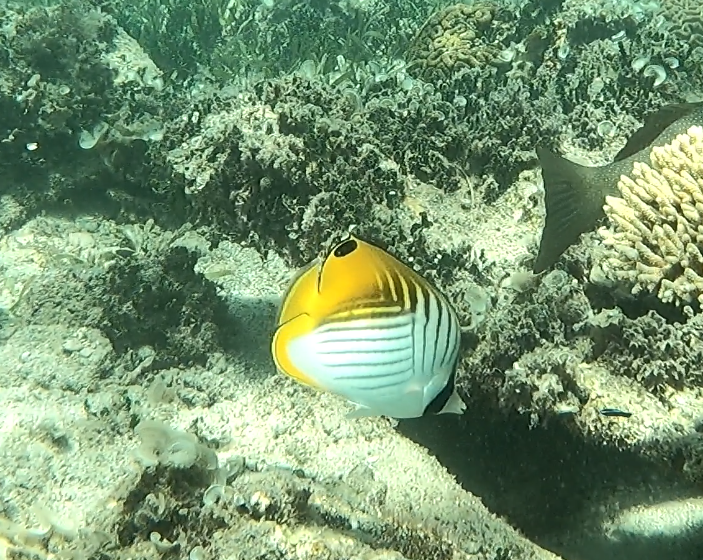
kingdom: Animalia
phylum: Chordata
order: Perciformes
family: Chaetodontidae
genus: Chaetodon
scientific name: Chaetodon auriga
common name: Threadfin butterflyfish
